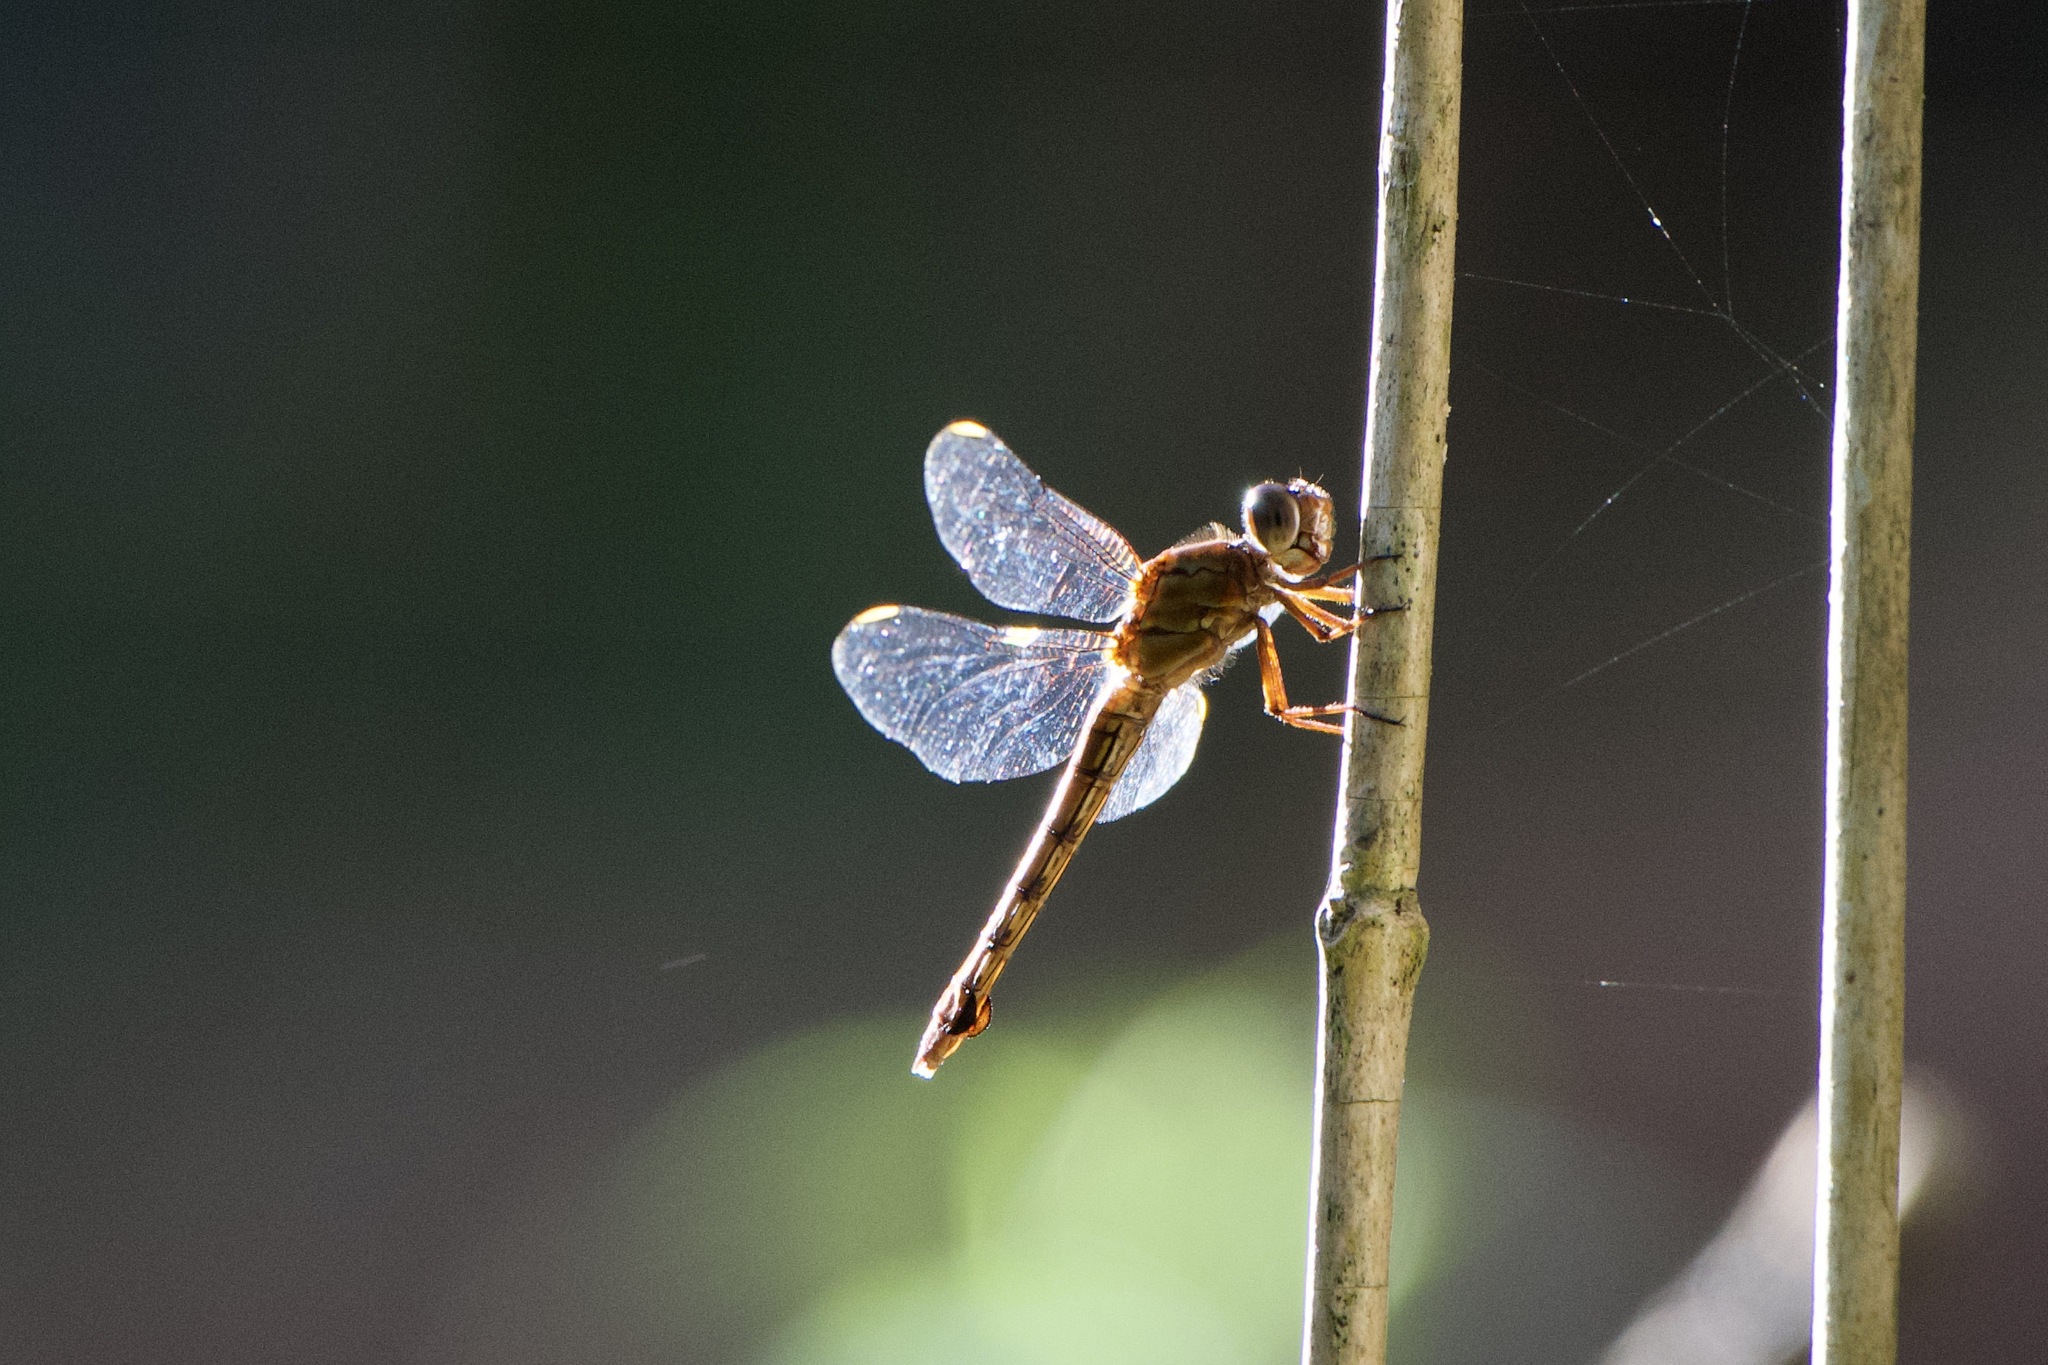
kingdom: Animalia
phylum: Arthropoda
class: Insecta
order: Odonata
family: Libellulidae
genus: Orthemis
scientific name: Orthemis discolor
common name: Carmine skimmer
